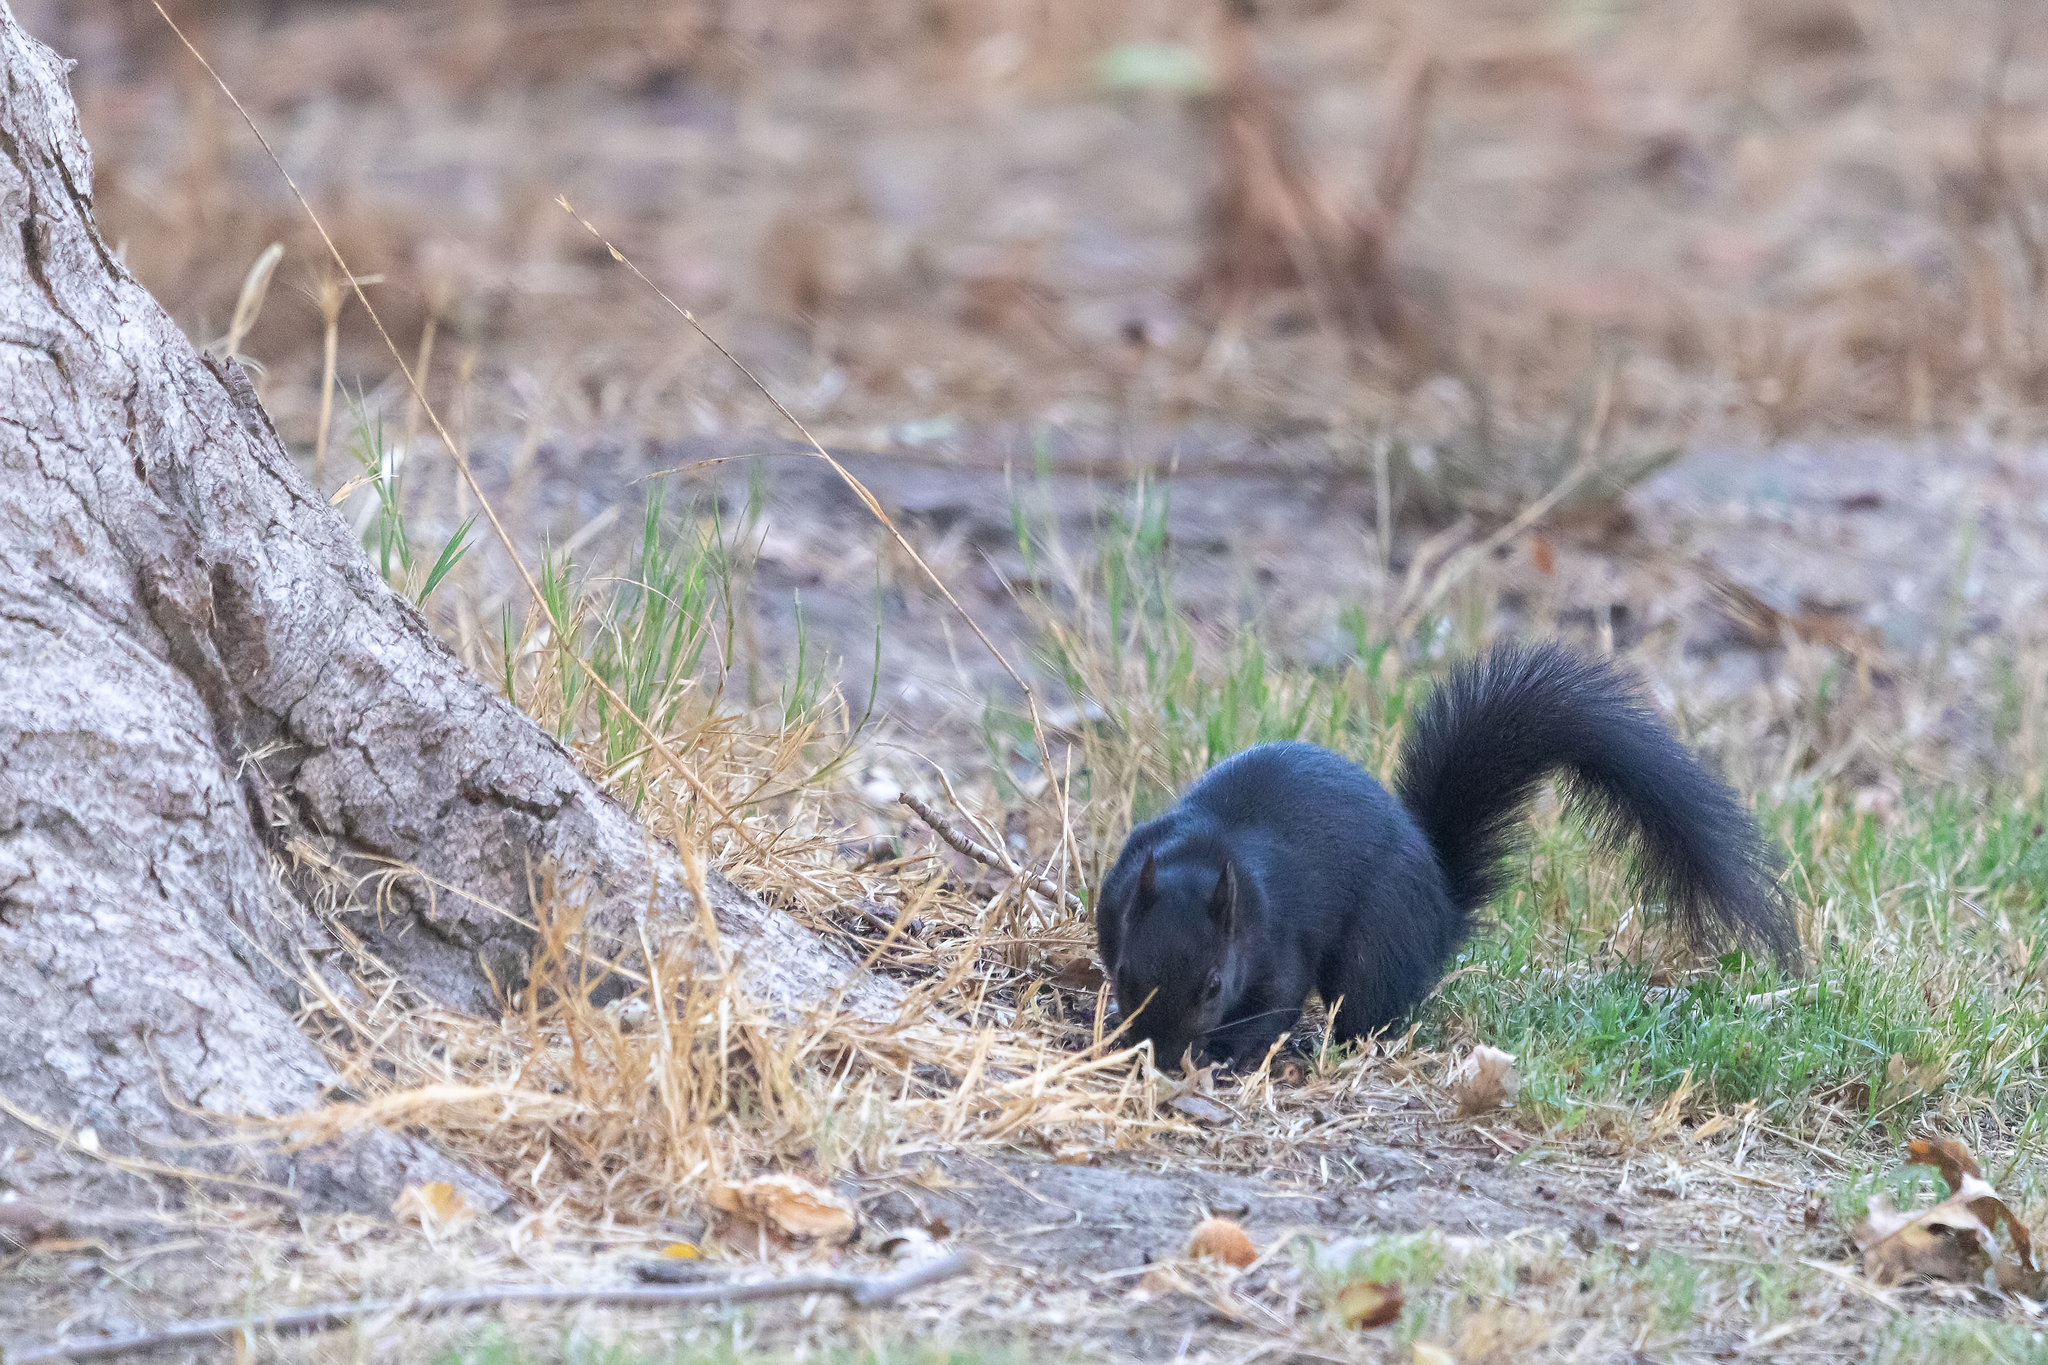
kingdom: Animalia
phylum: Chordata
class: Mammalia
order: Rodentia
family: Sciuridae
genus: Sciurus
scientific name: Sciurus carolinensis
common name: Eastern gray squirrel
